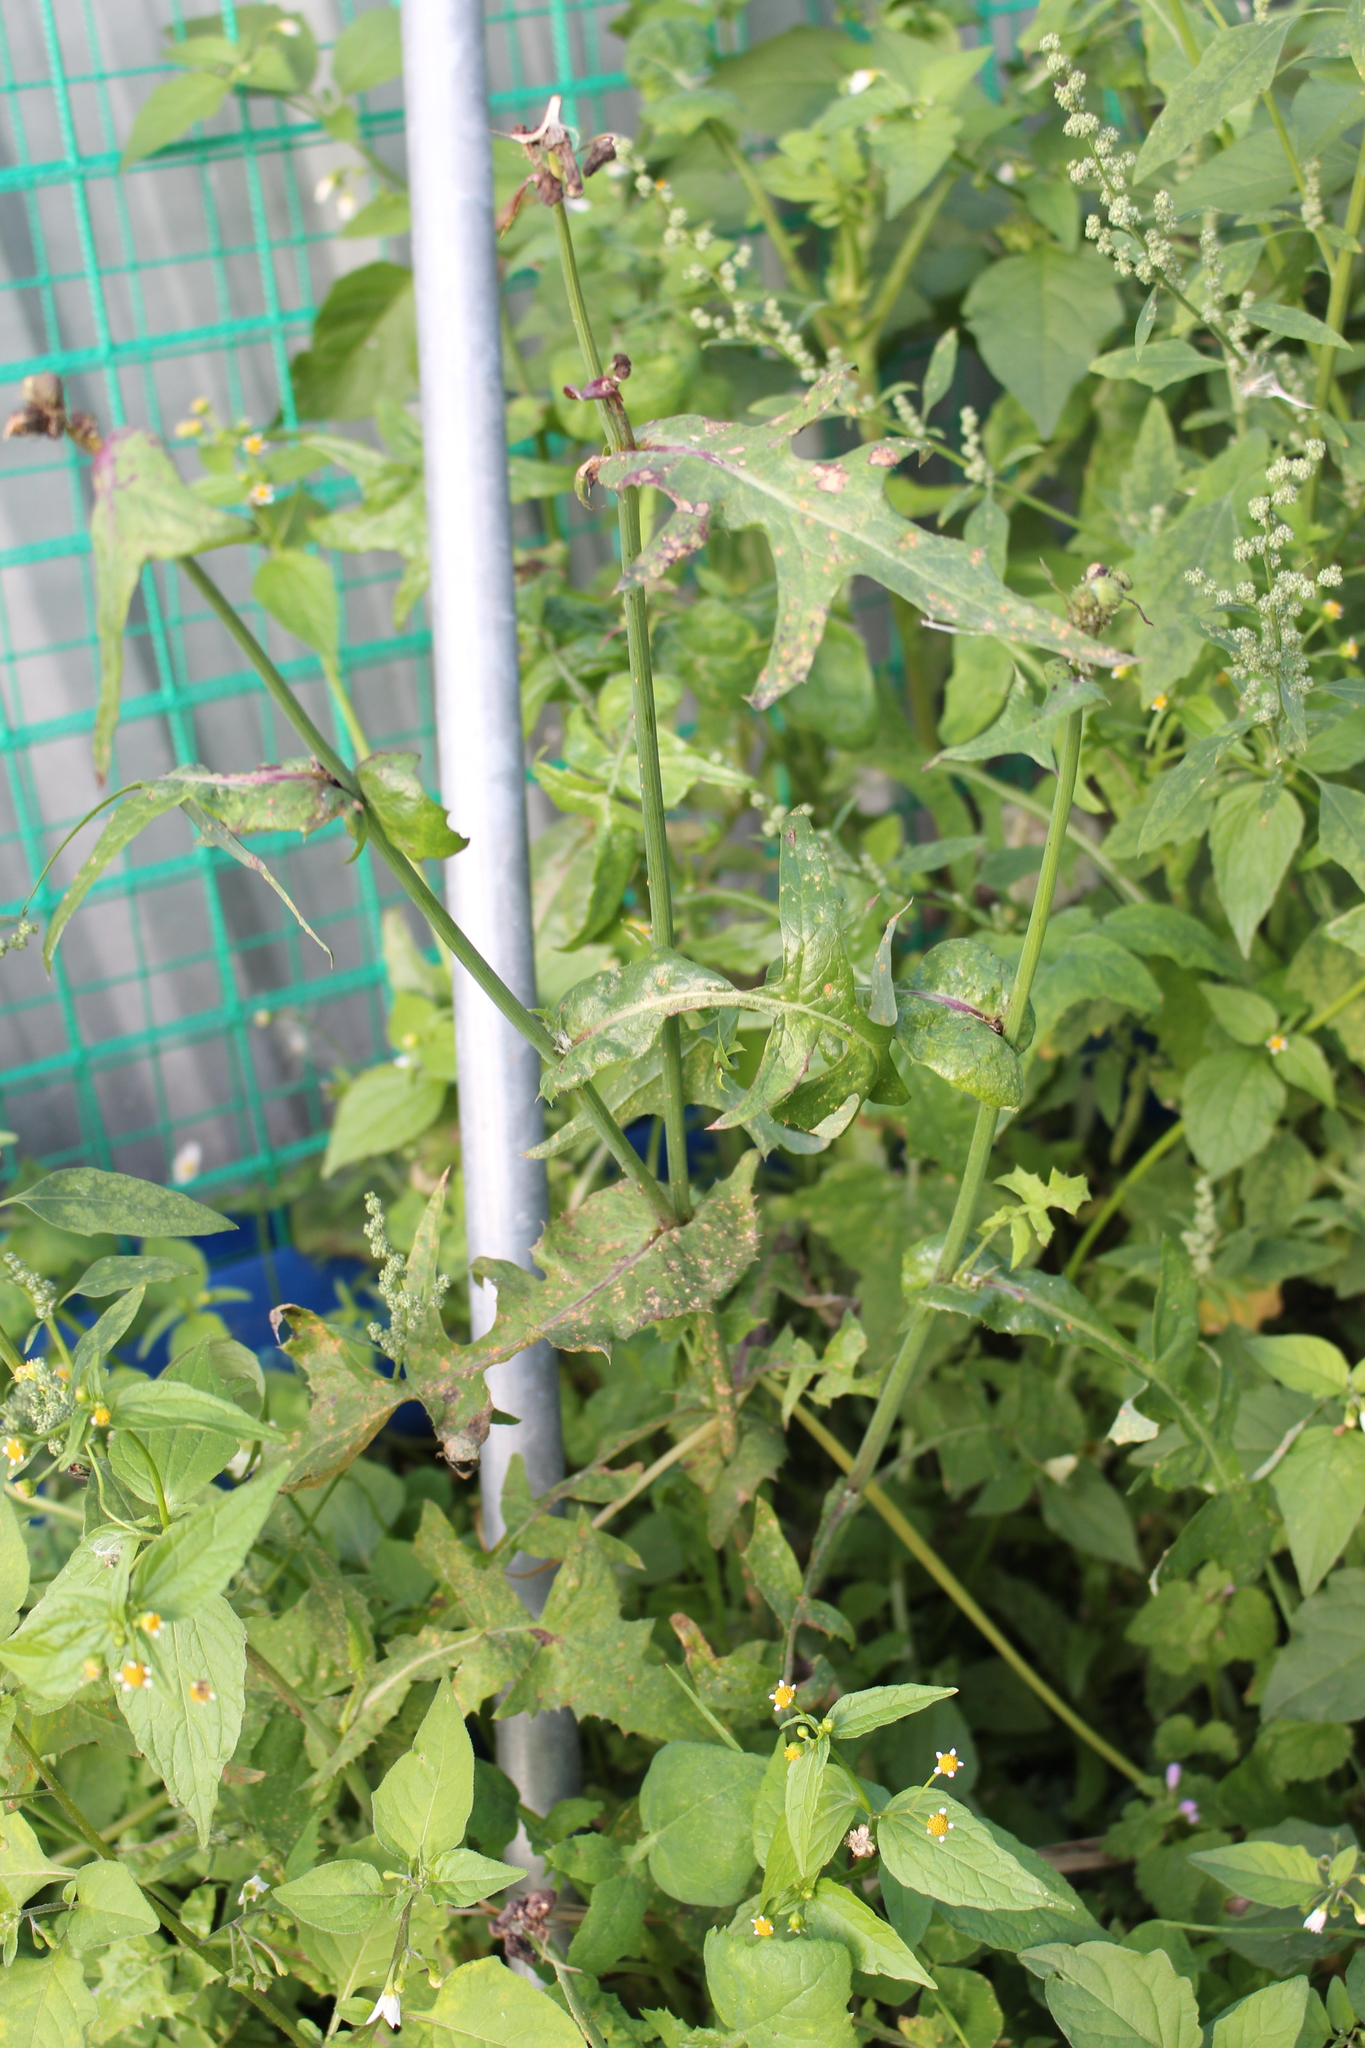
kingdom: Plantae
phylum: Tracheophyta
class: Magnoliopsida
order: Asterales
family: Asteraceae
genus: Sonchus
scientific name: Sonchus oleraceus
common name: Common sowthistle
